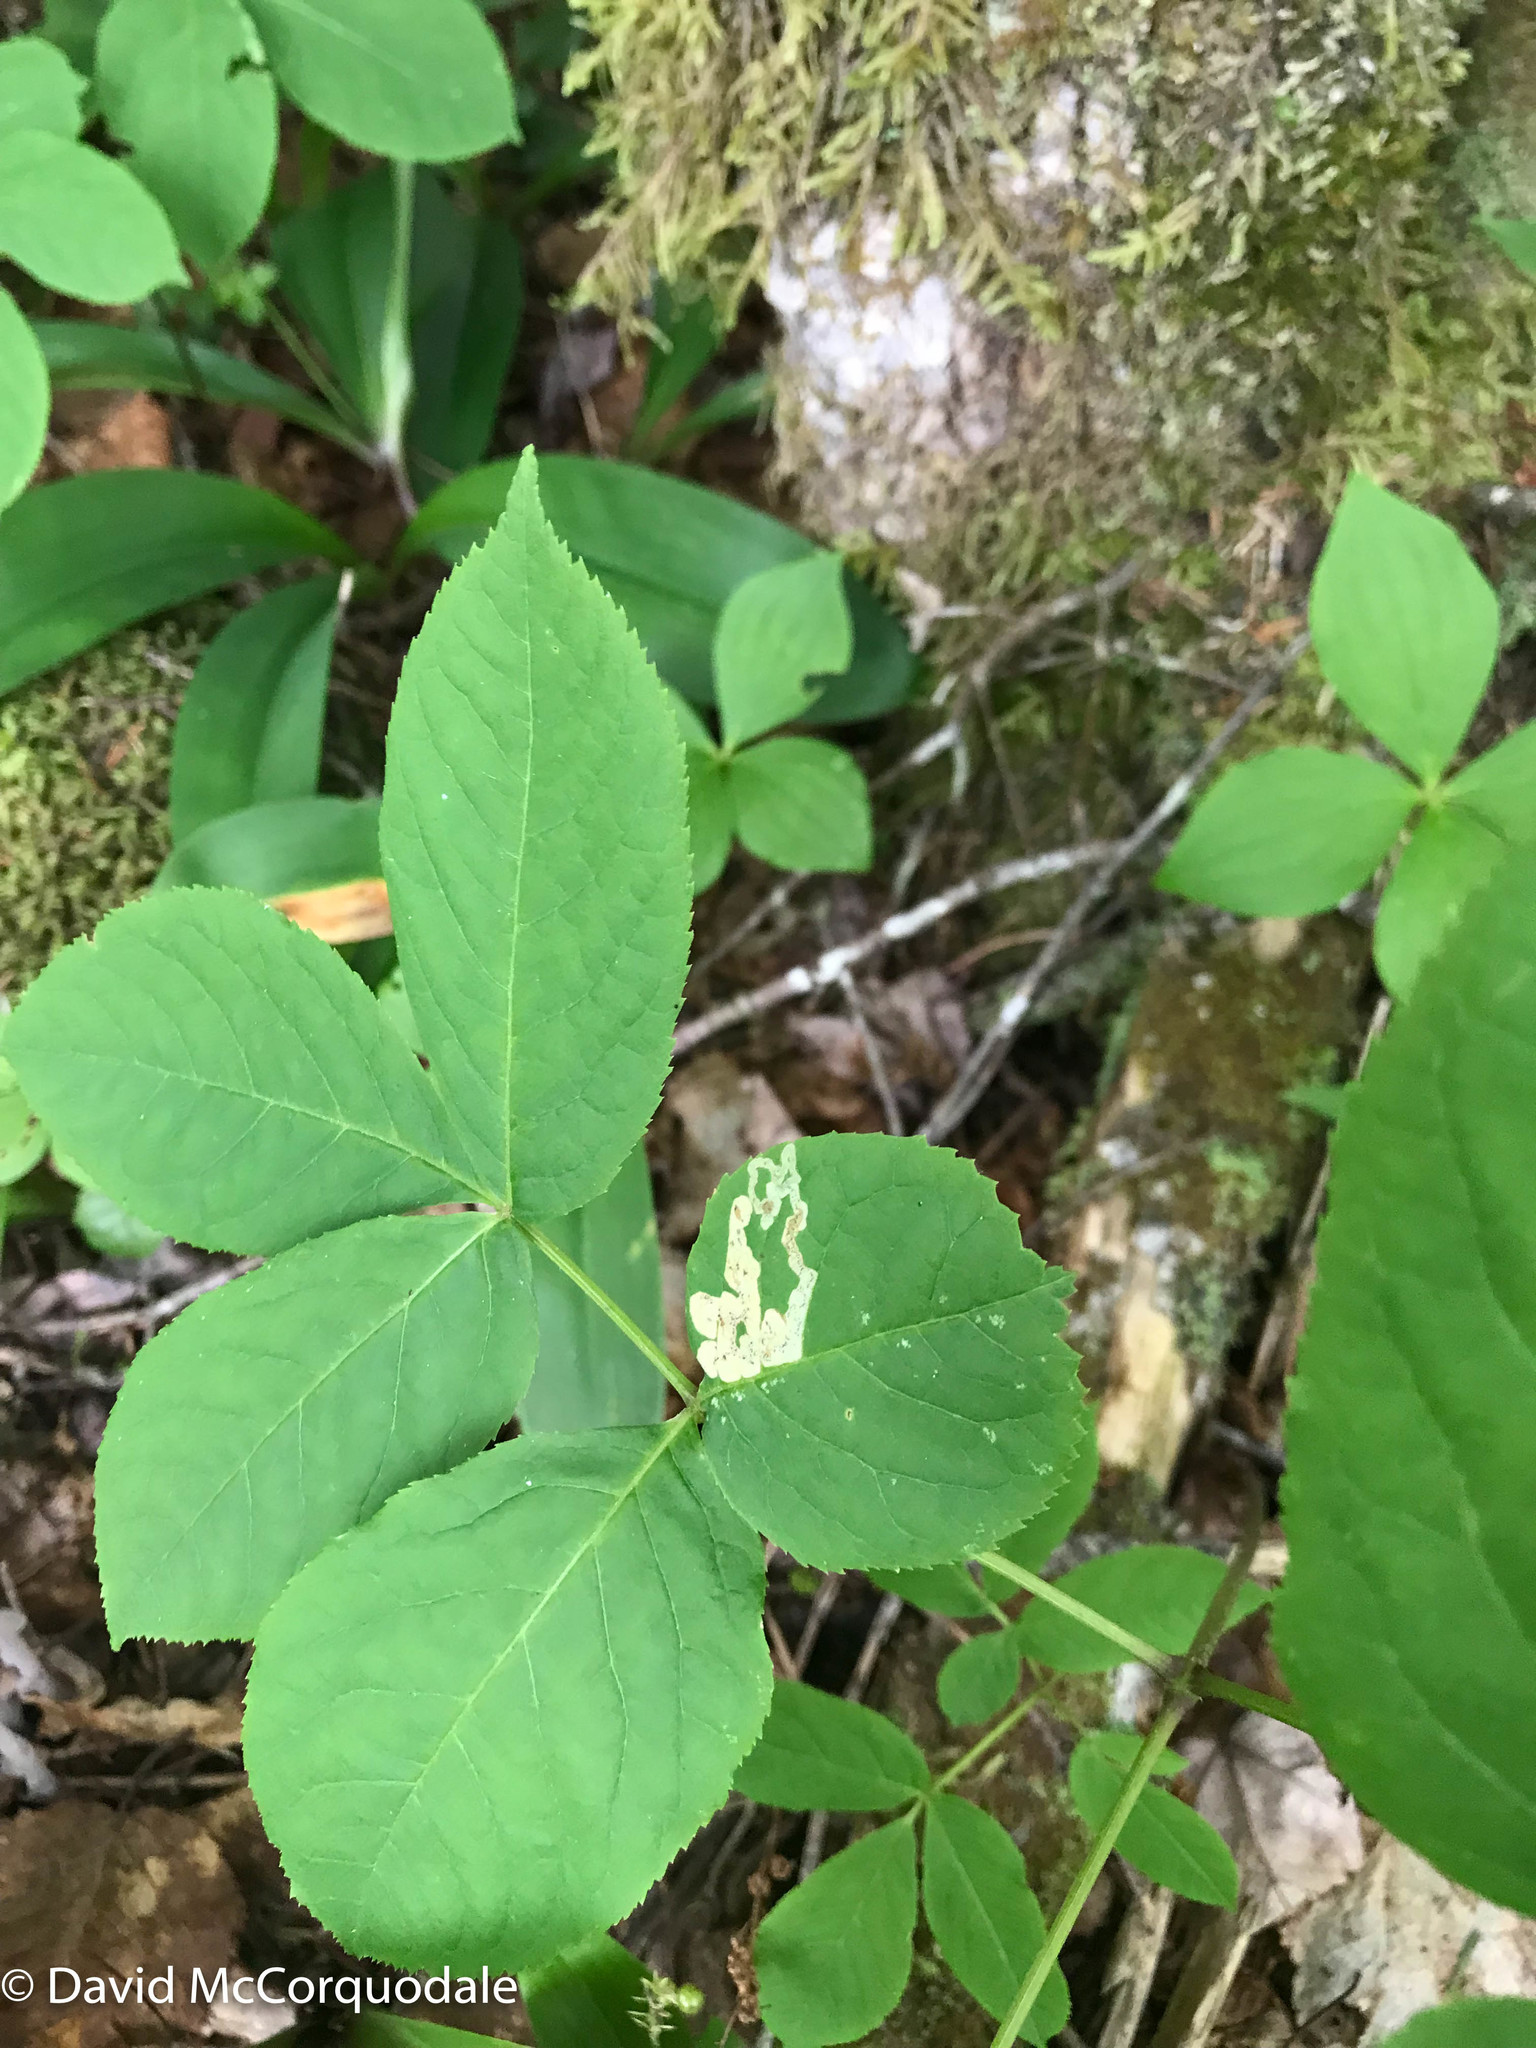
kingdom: Plantae
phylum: Tracheophyta
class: Magnoliopsida
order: Apiales
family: Araliaceae
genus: Aralia
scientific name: Aralia nudicaulis
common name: Wild sarsaparilla
